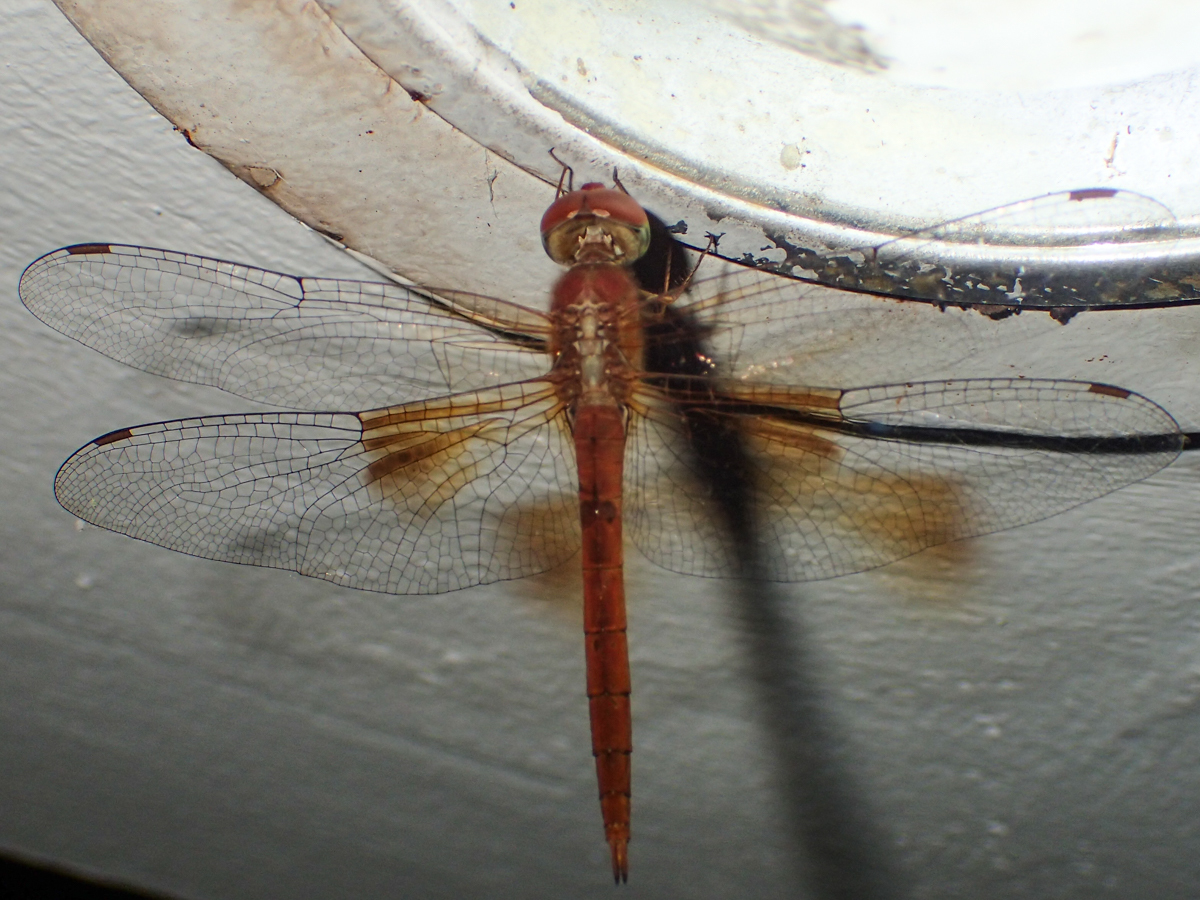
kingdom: Animalia
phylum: Arthropoda
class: Insecta
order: Odonata
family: Libellulidae
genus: Tholymis
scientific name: Tholymis tillarga
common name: Coral-tailed cloud wing
